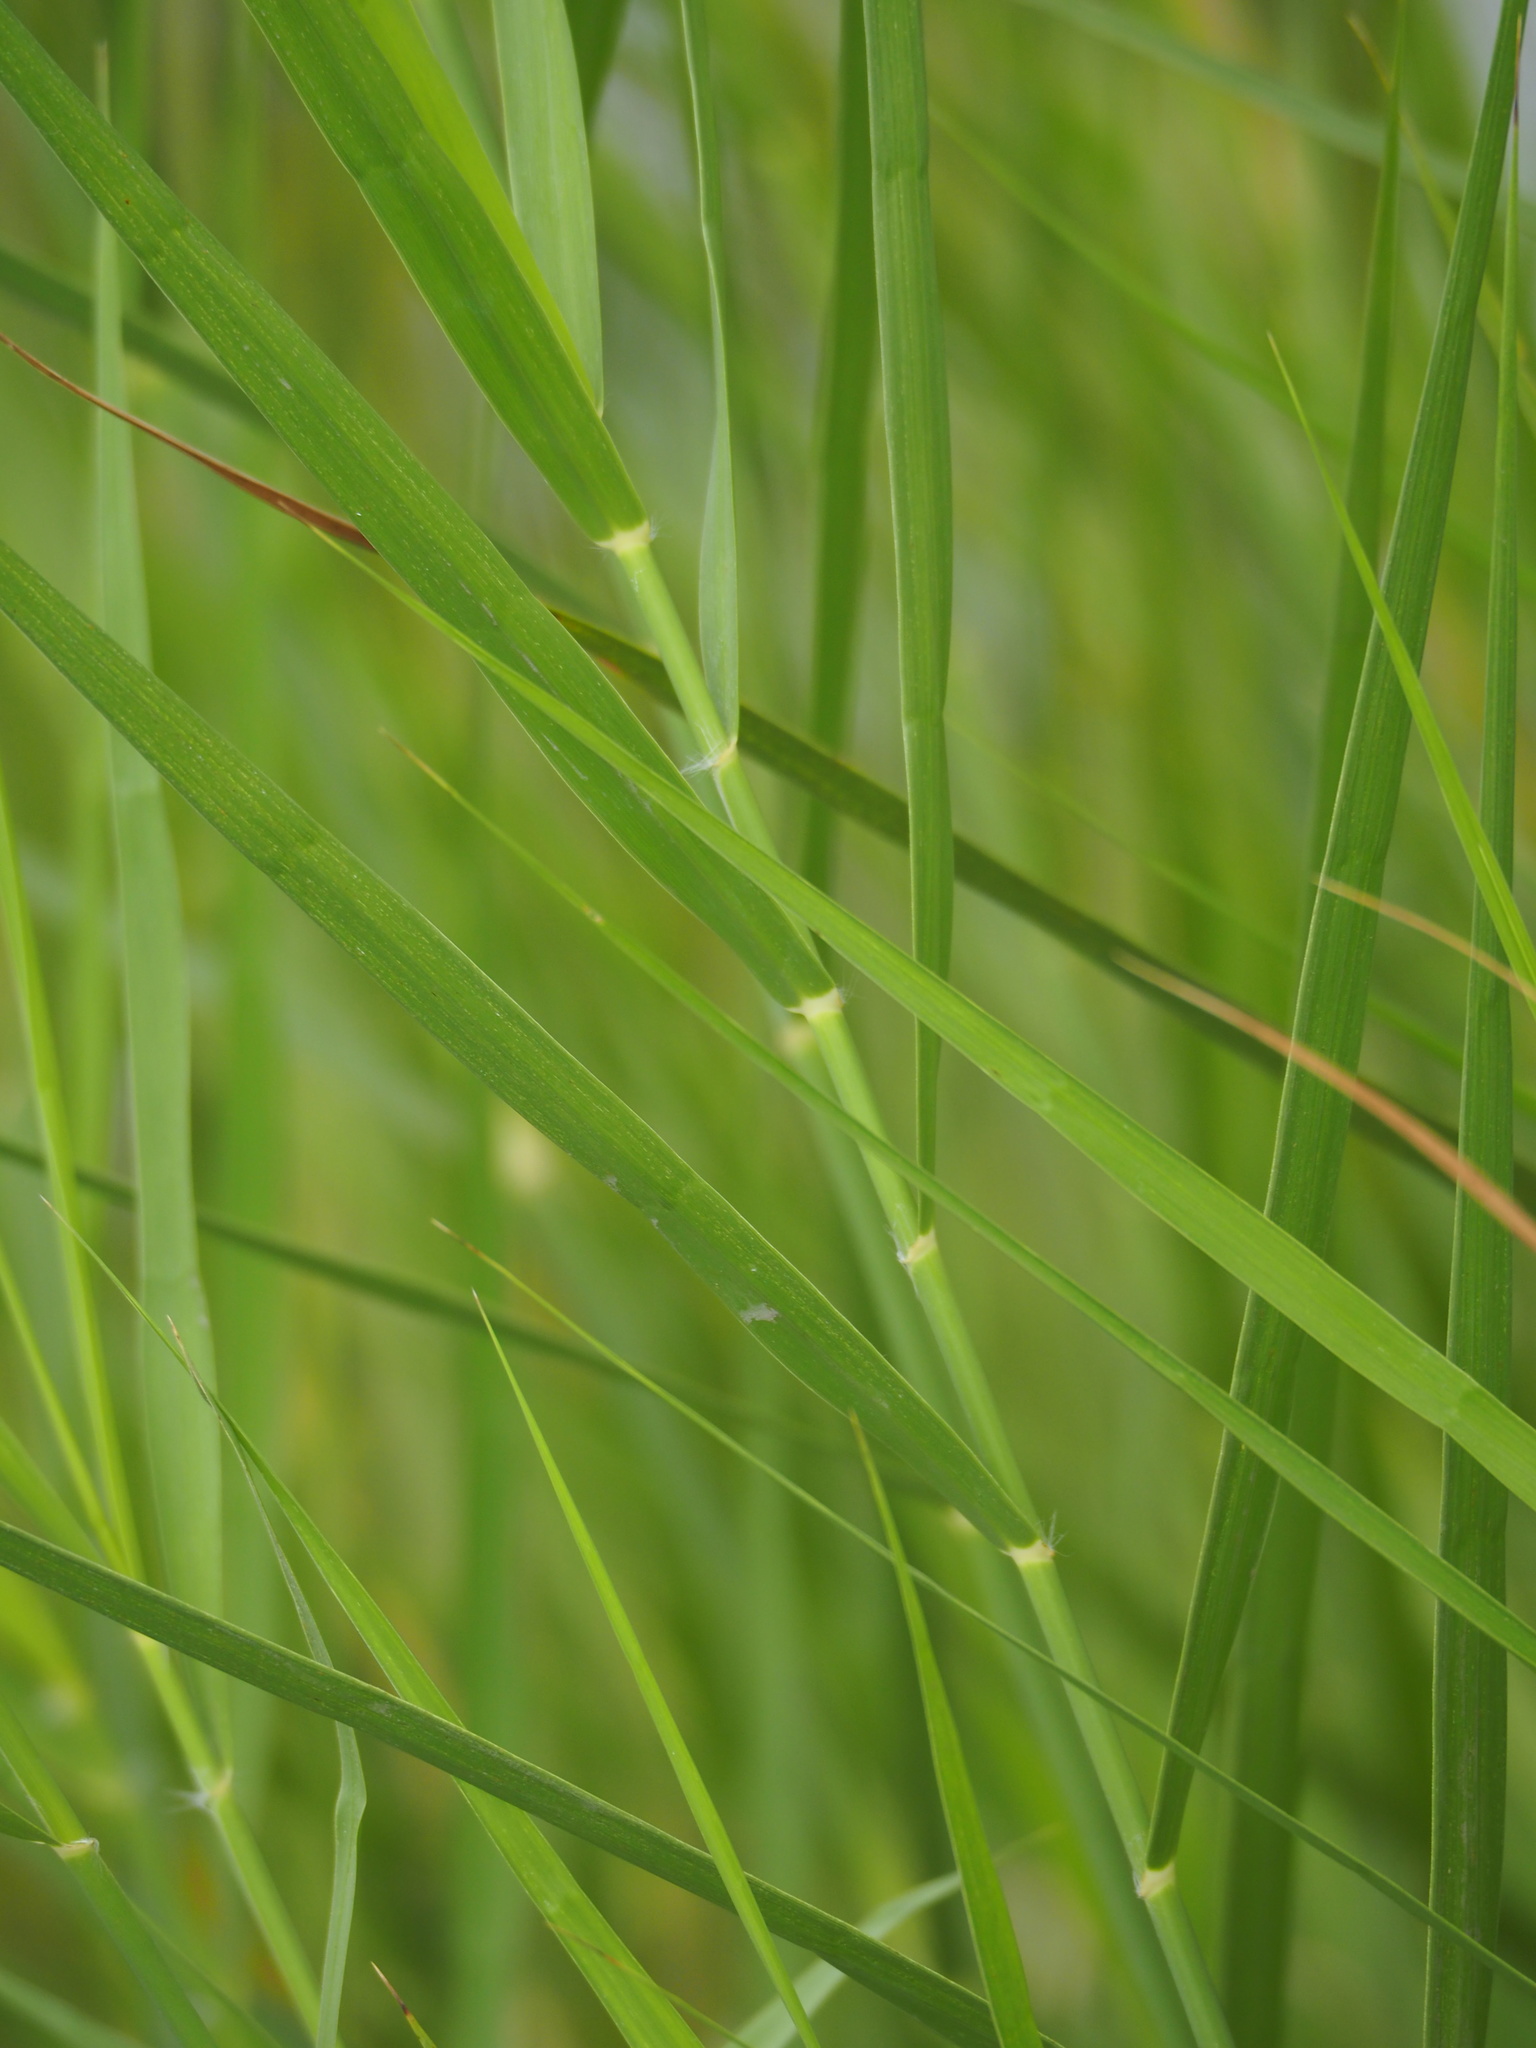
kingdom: Plantae
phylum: Tracheophyta
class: Liliopsida
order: Poales
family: Poaceae
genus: Phragmites
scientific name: Phragmites karka
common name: Tropical reed
